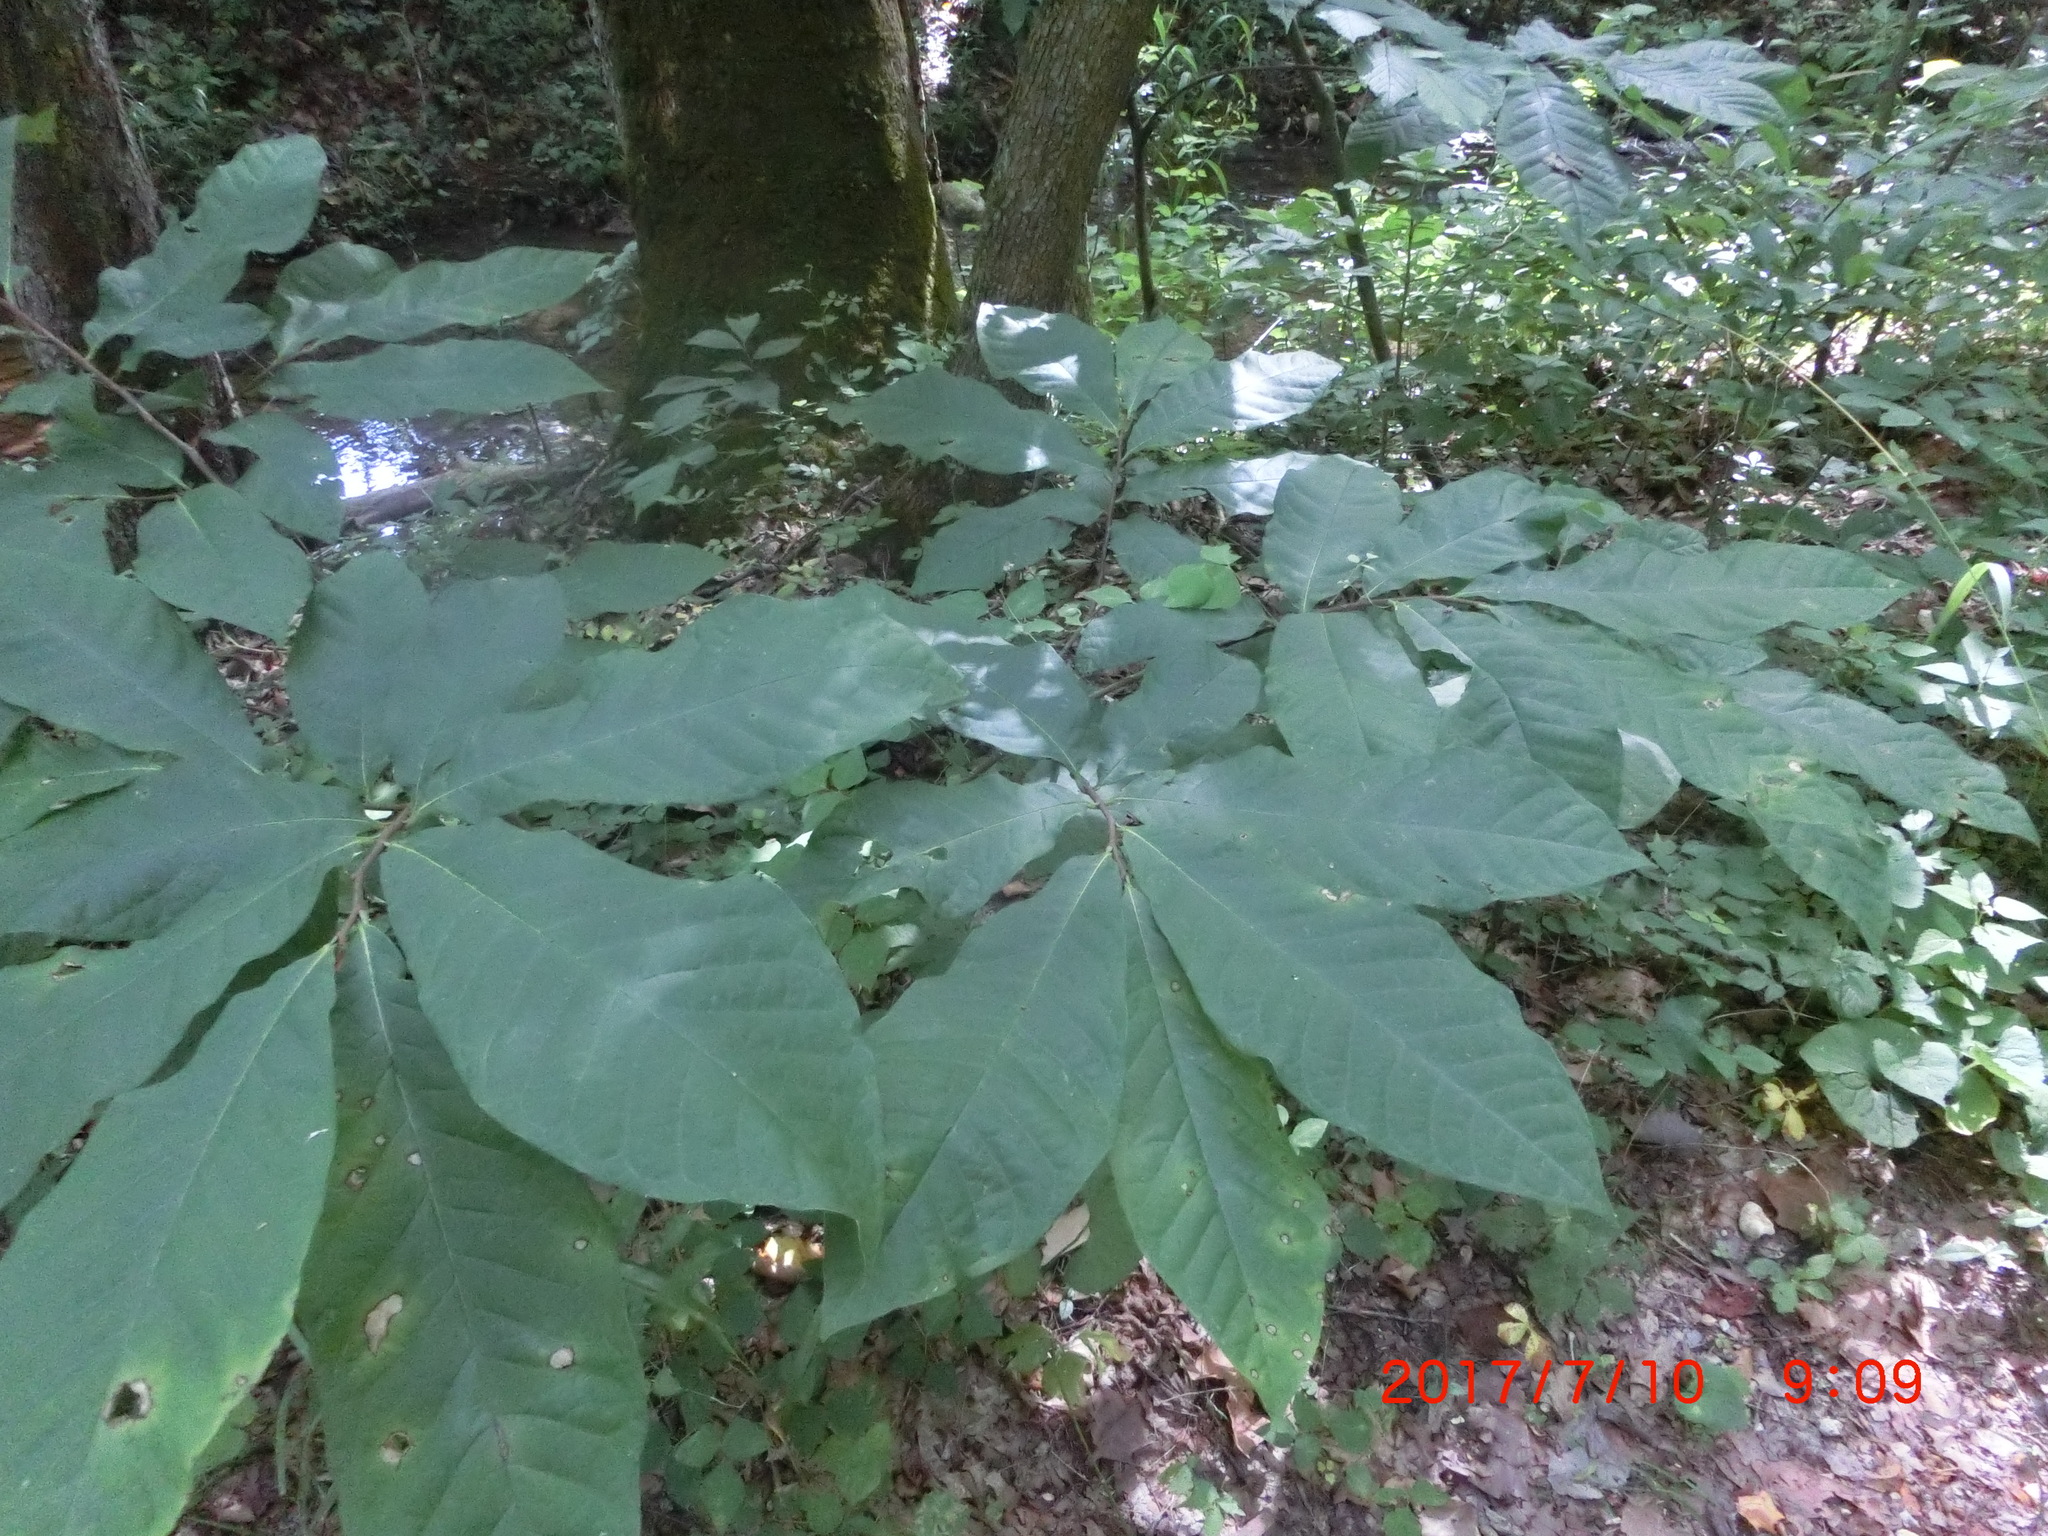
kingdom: Plantae
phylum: Tracheophyta
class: Magnoliopsida
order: Magnoliales
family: Annonaceae
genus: Asimina
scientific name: Asimina triloba
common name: Dog-banana
